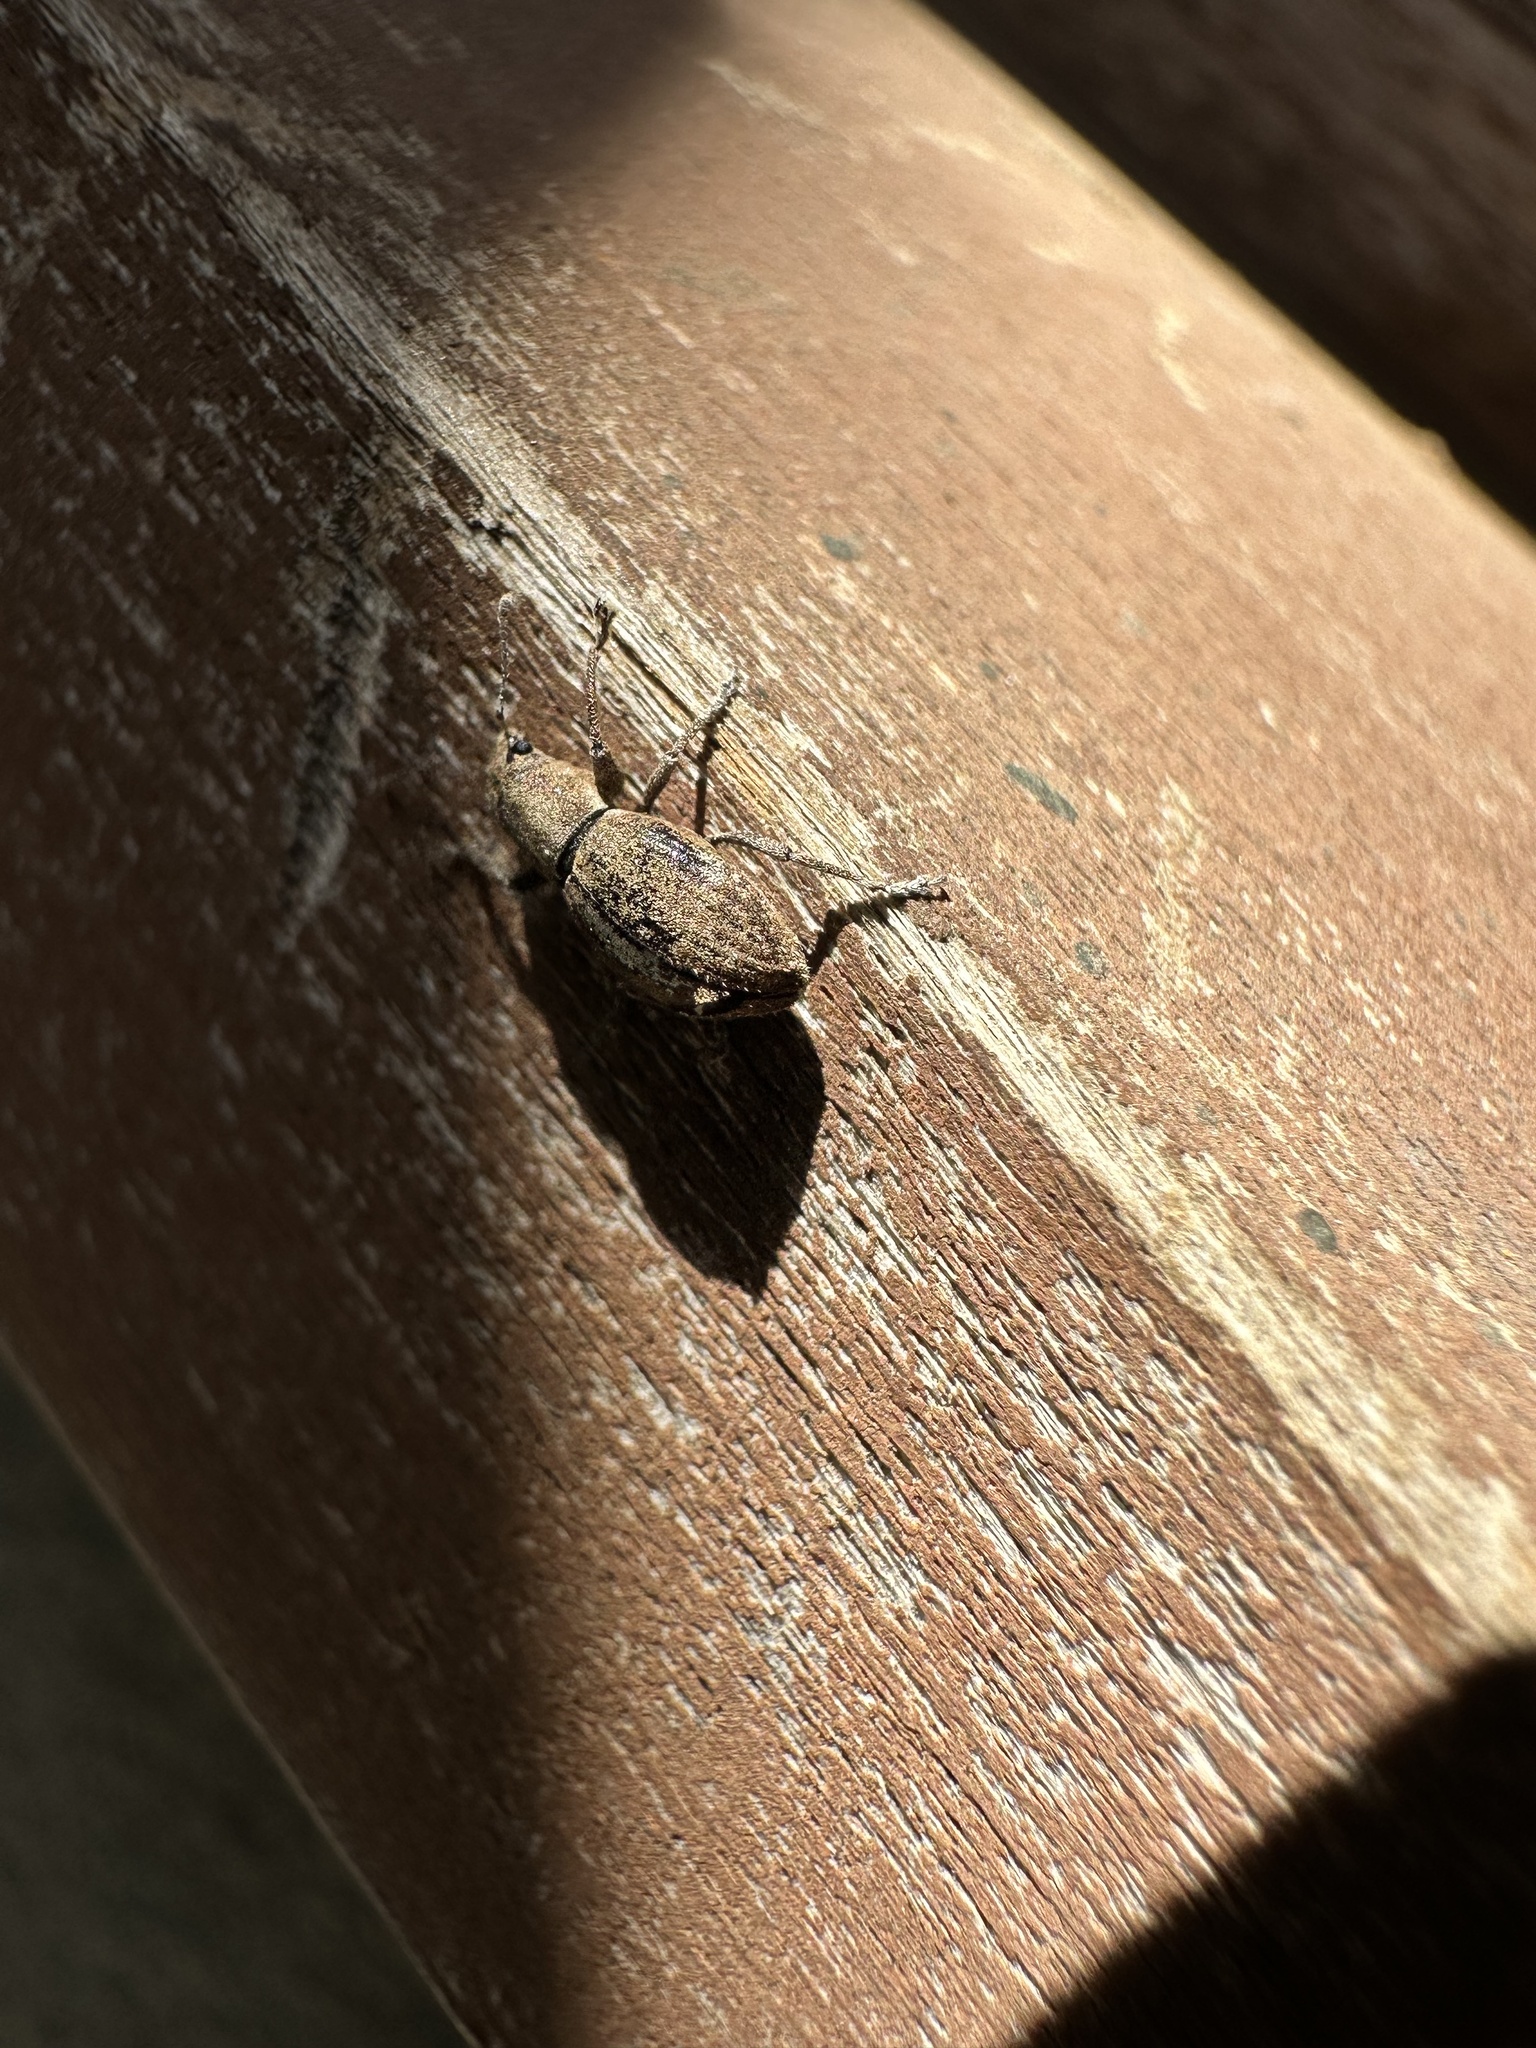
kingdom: Animalia
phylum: Arthropoda
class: Insecta
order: Coleoptera
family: Curculionidae
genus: Naupactus
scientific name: Naupactus cervinus
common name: Fuller rose beetle
